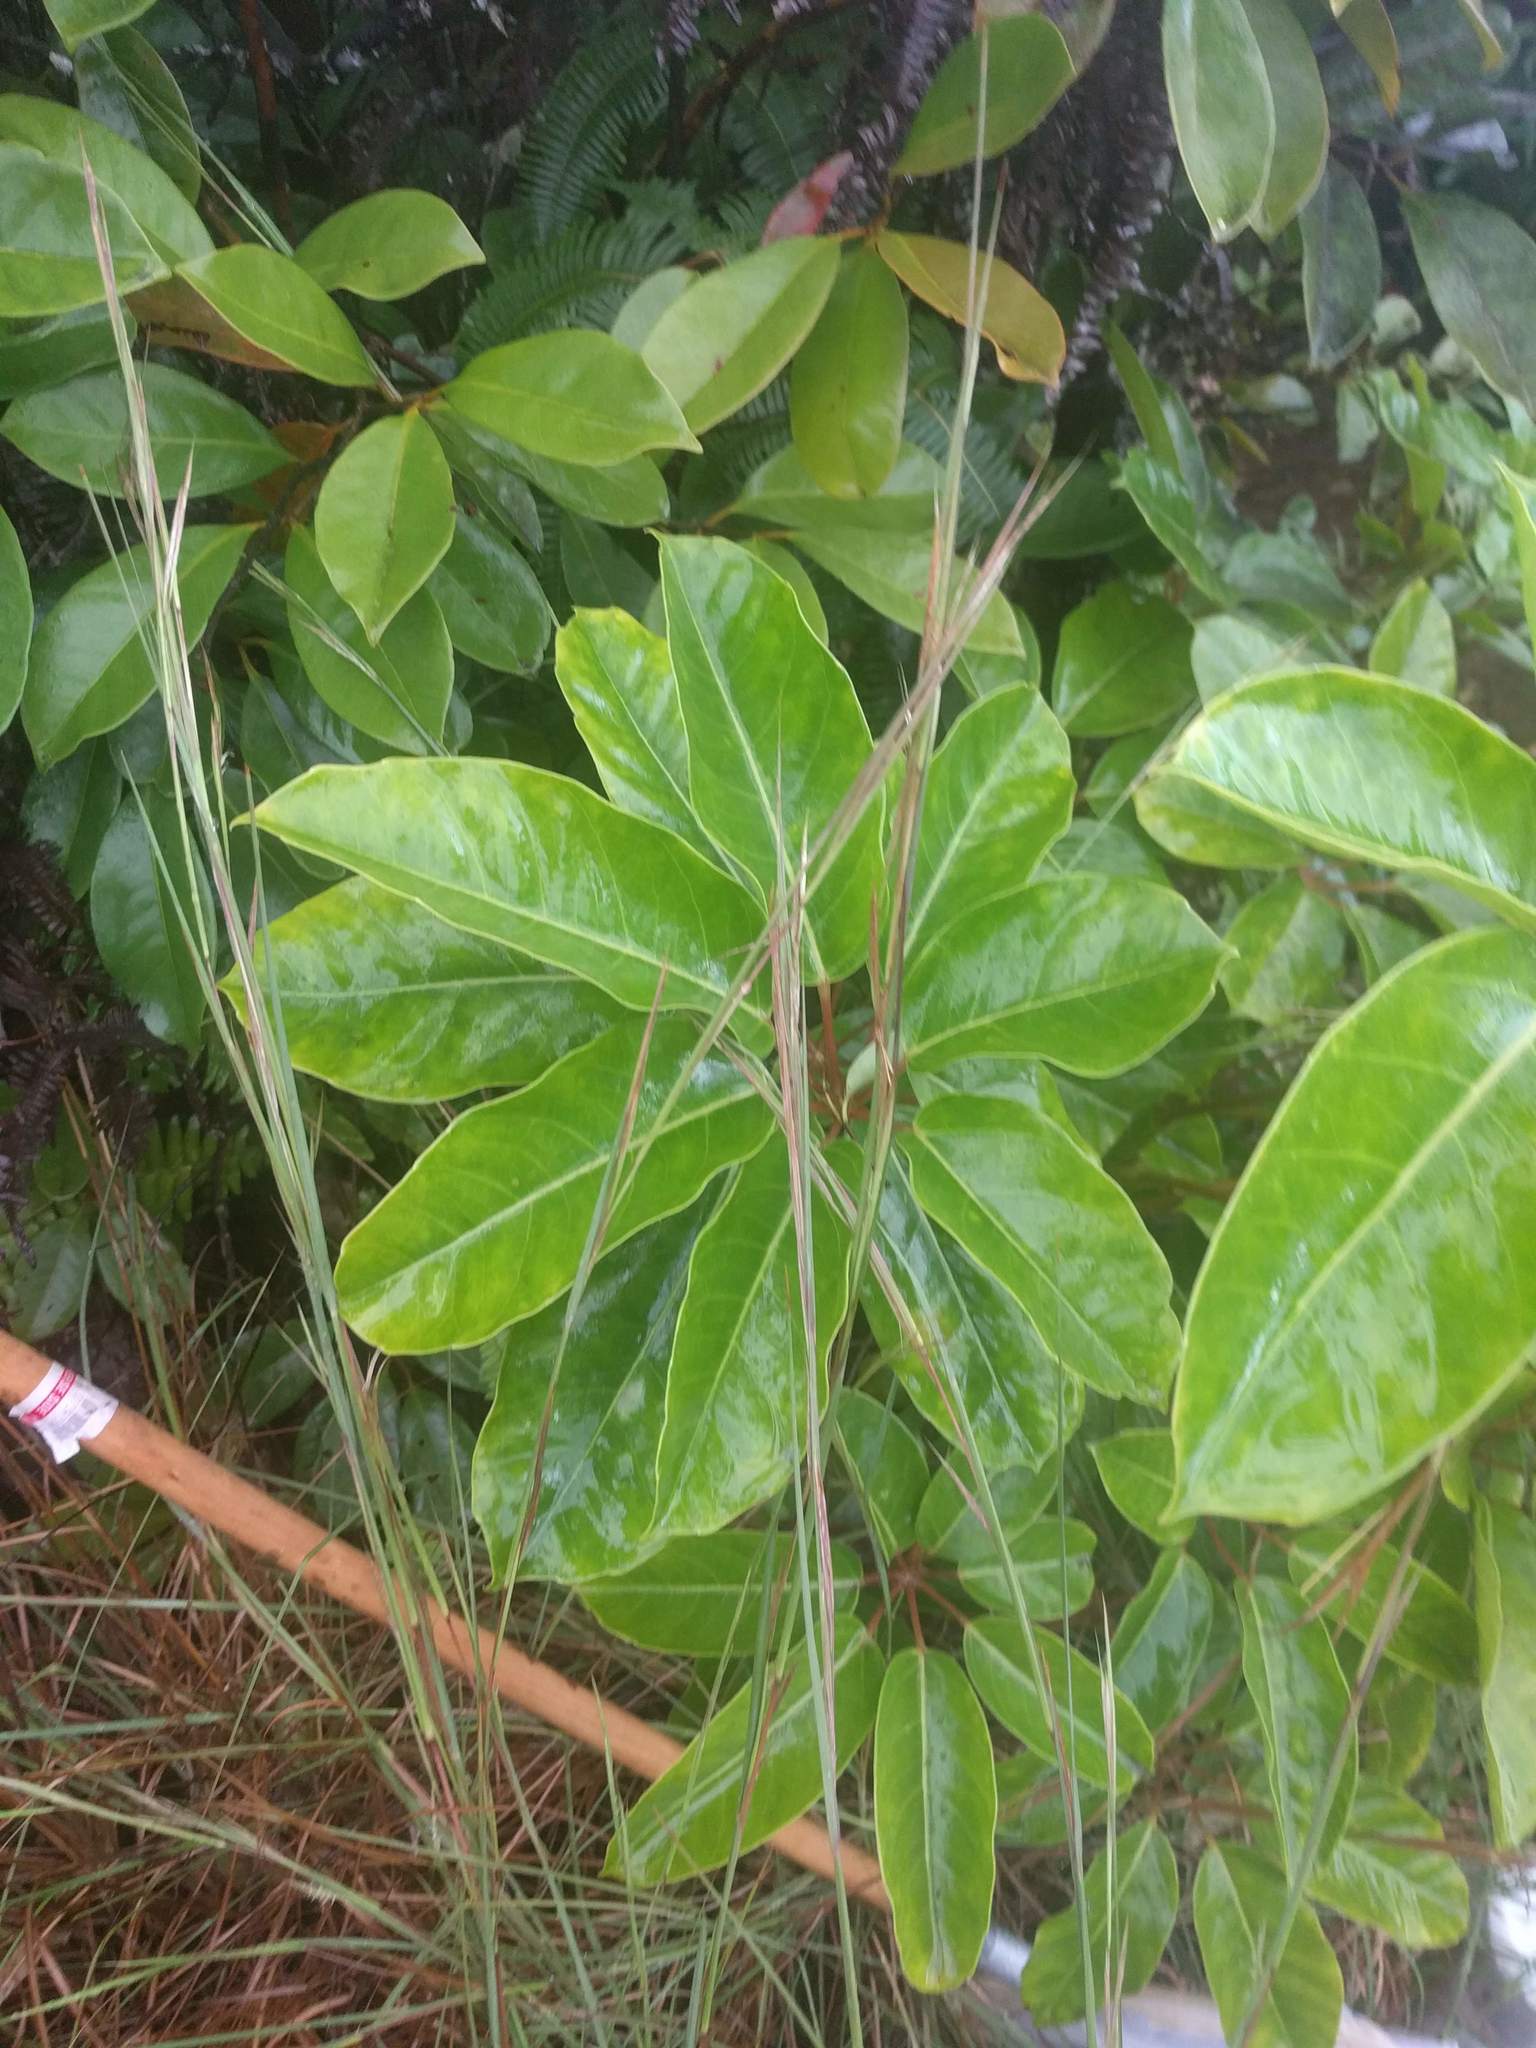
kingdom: Plantae
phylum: Tracheophyta
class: Magnoliopsida
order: Apiales
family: Araliaceae
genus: Heptapleurum
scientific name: Heptapleurum actinophyllum
